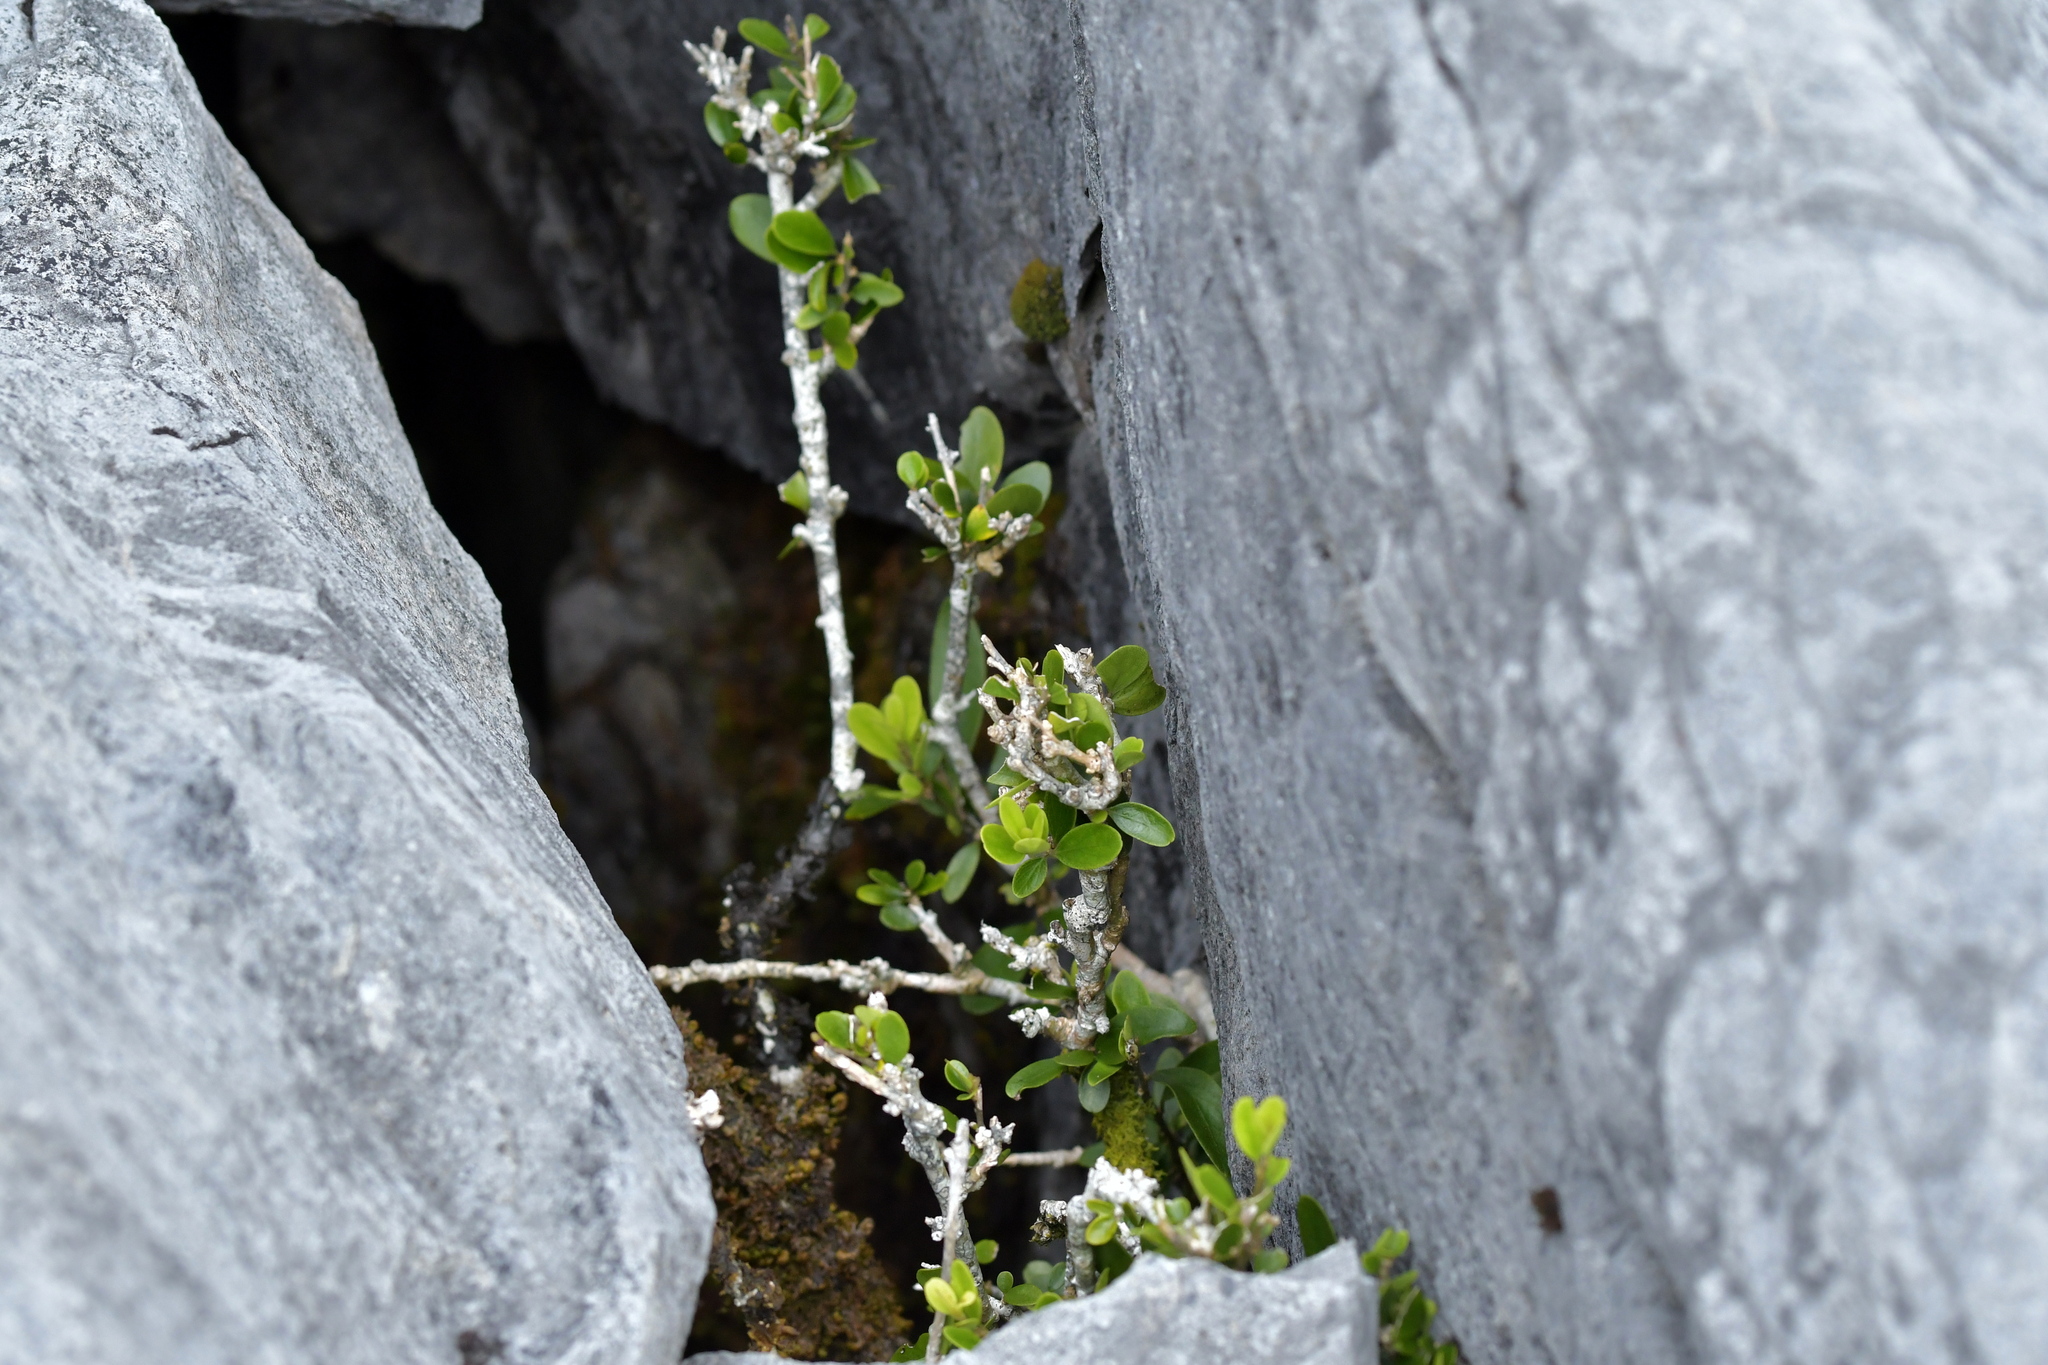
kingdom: Plantae
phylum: Tracheophyta
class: Magnoliopsida
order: Malpighiales
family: Violaceae
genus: Melicytus
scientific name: Melicytus obovatus
